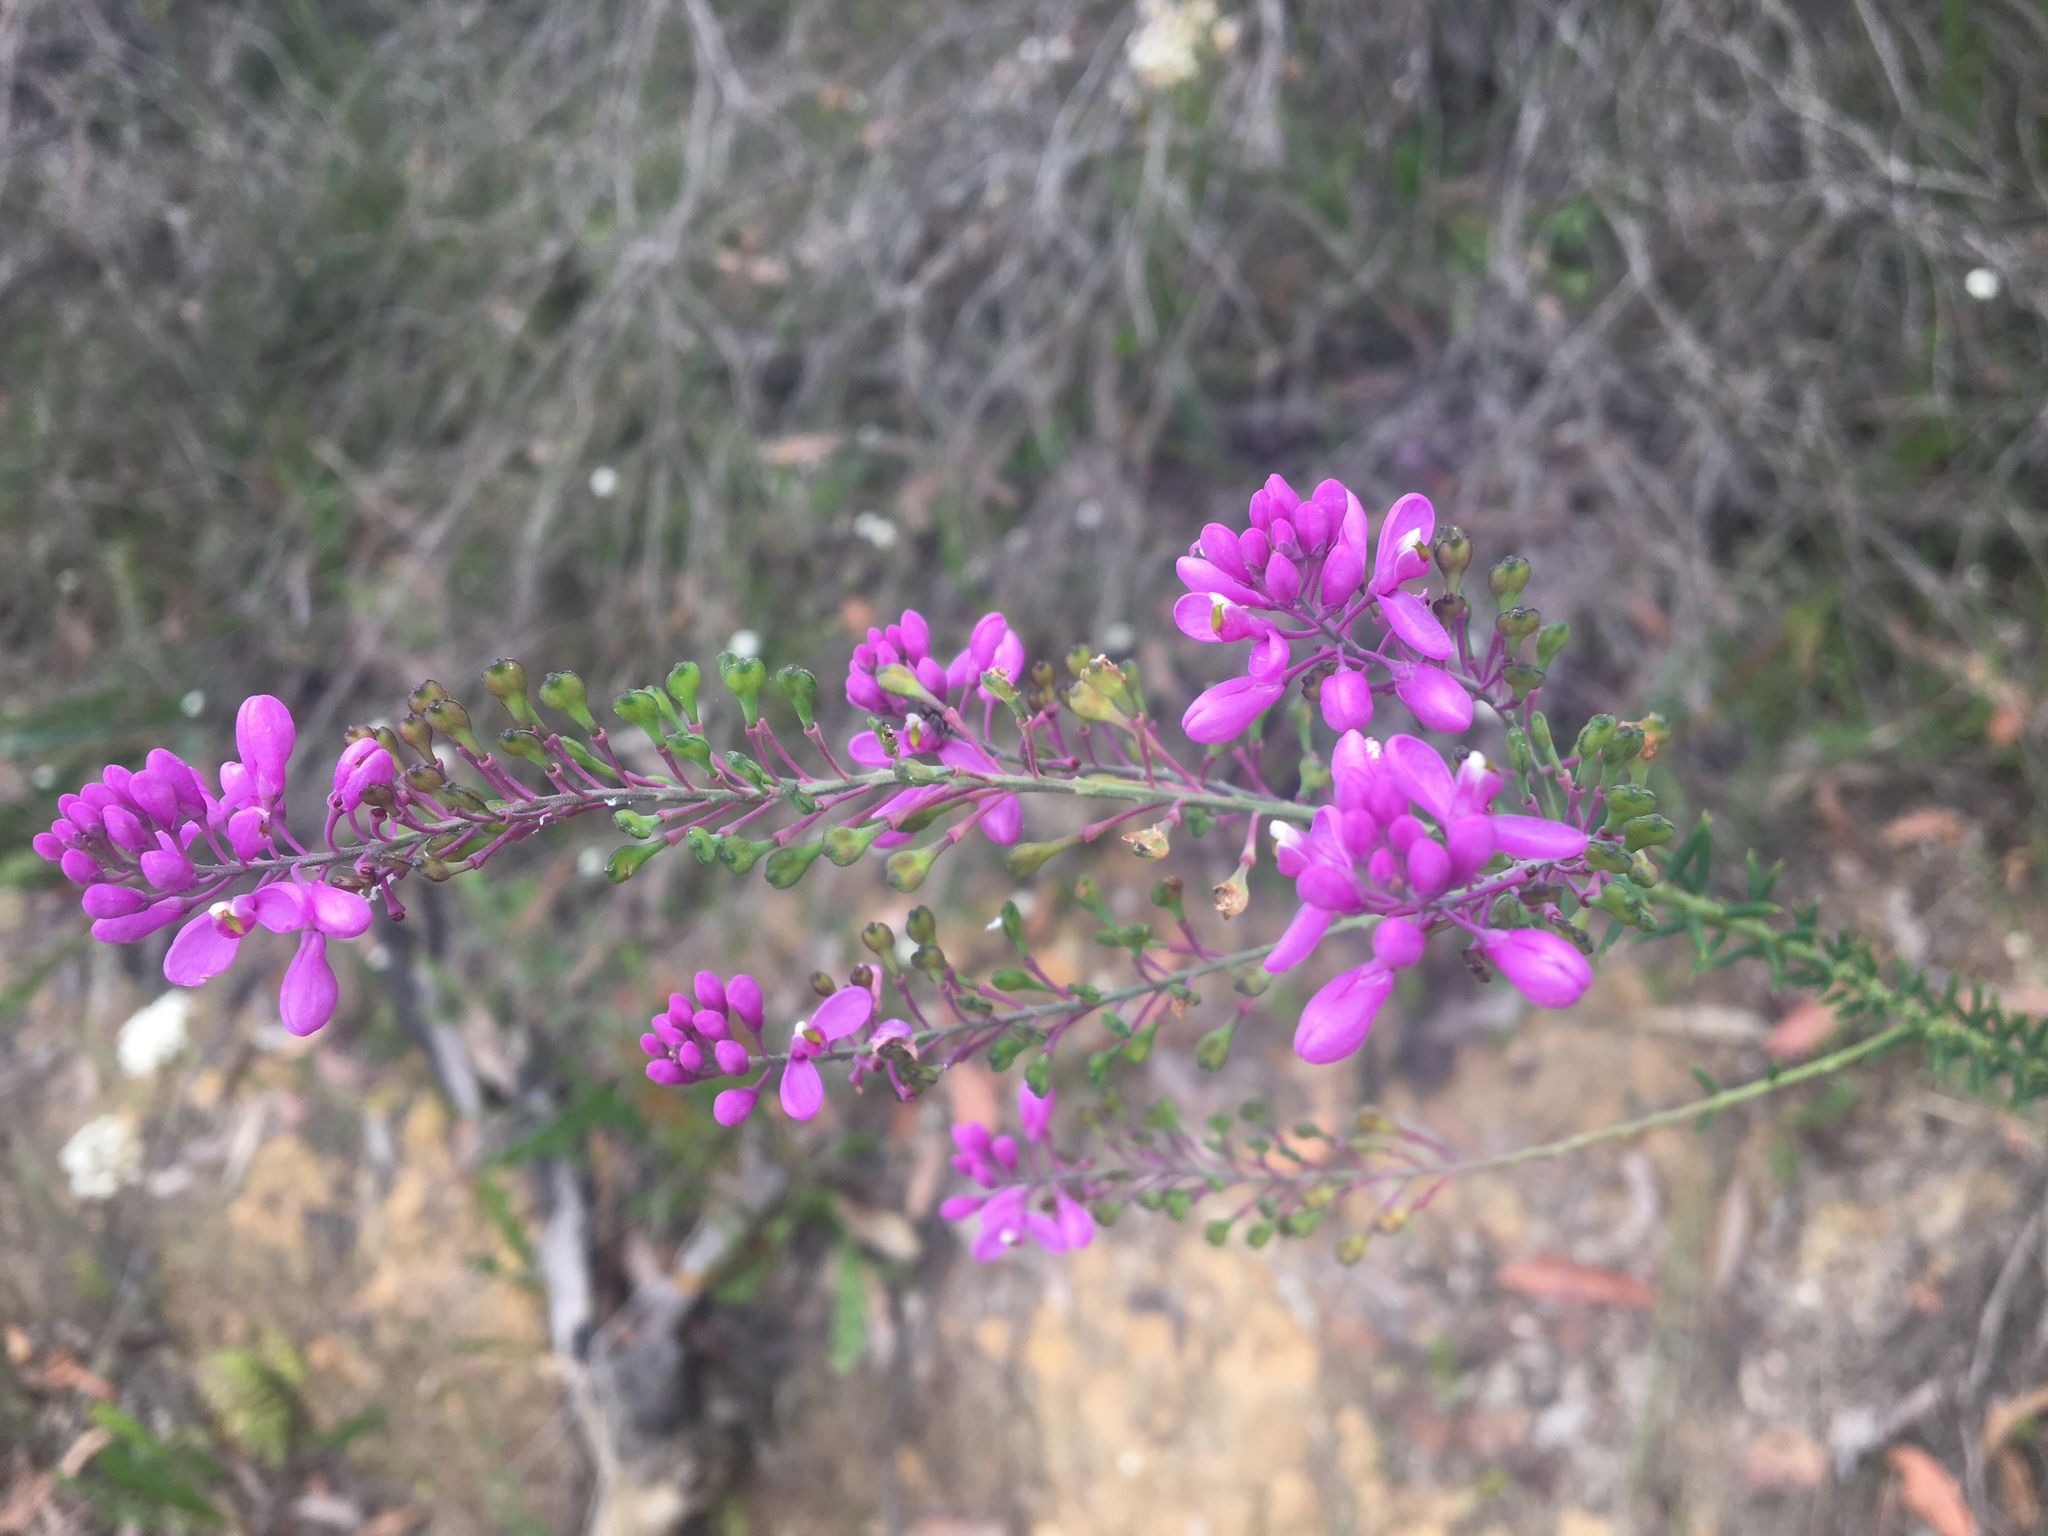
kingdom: Plantae
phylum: Tracheophyta
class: Magnoliopsida
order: Fabales
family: Polygalaceae
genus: Comesperma
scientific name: Comesperma ericinum
